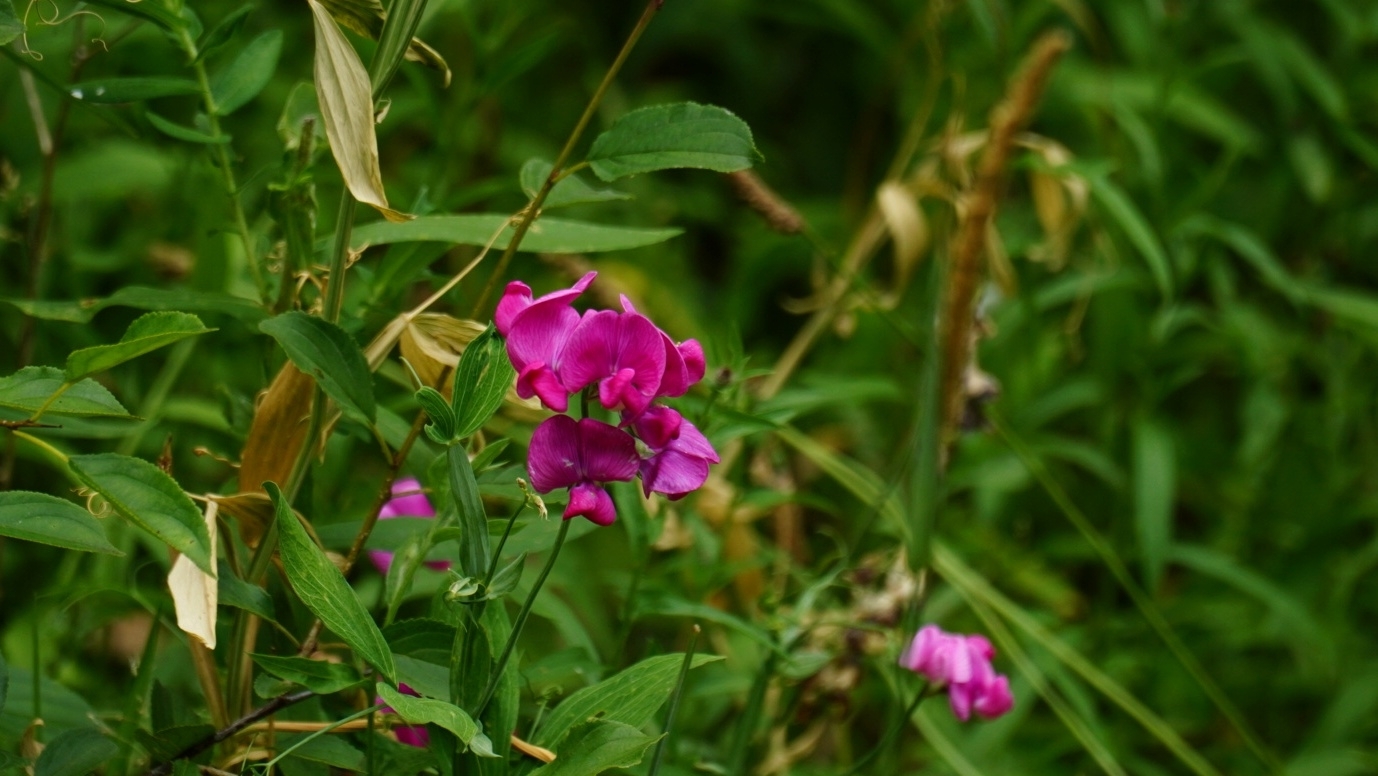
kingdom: Plantae
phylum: Tracheophyta
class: Magnoliopsida
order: Fabales
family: Fabaceae
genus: Lathyrus
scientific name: Lathyrus latifolius
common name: Perennial pea
